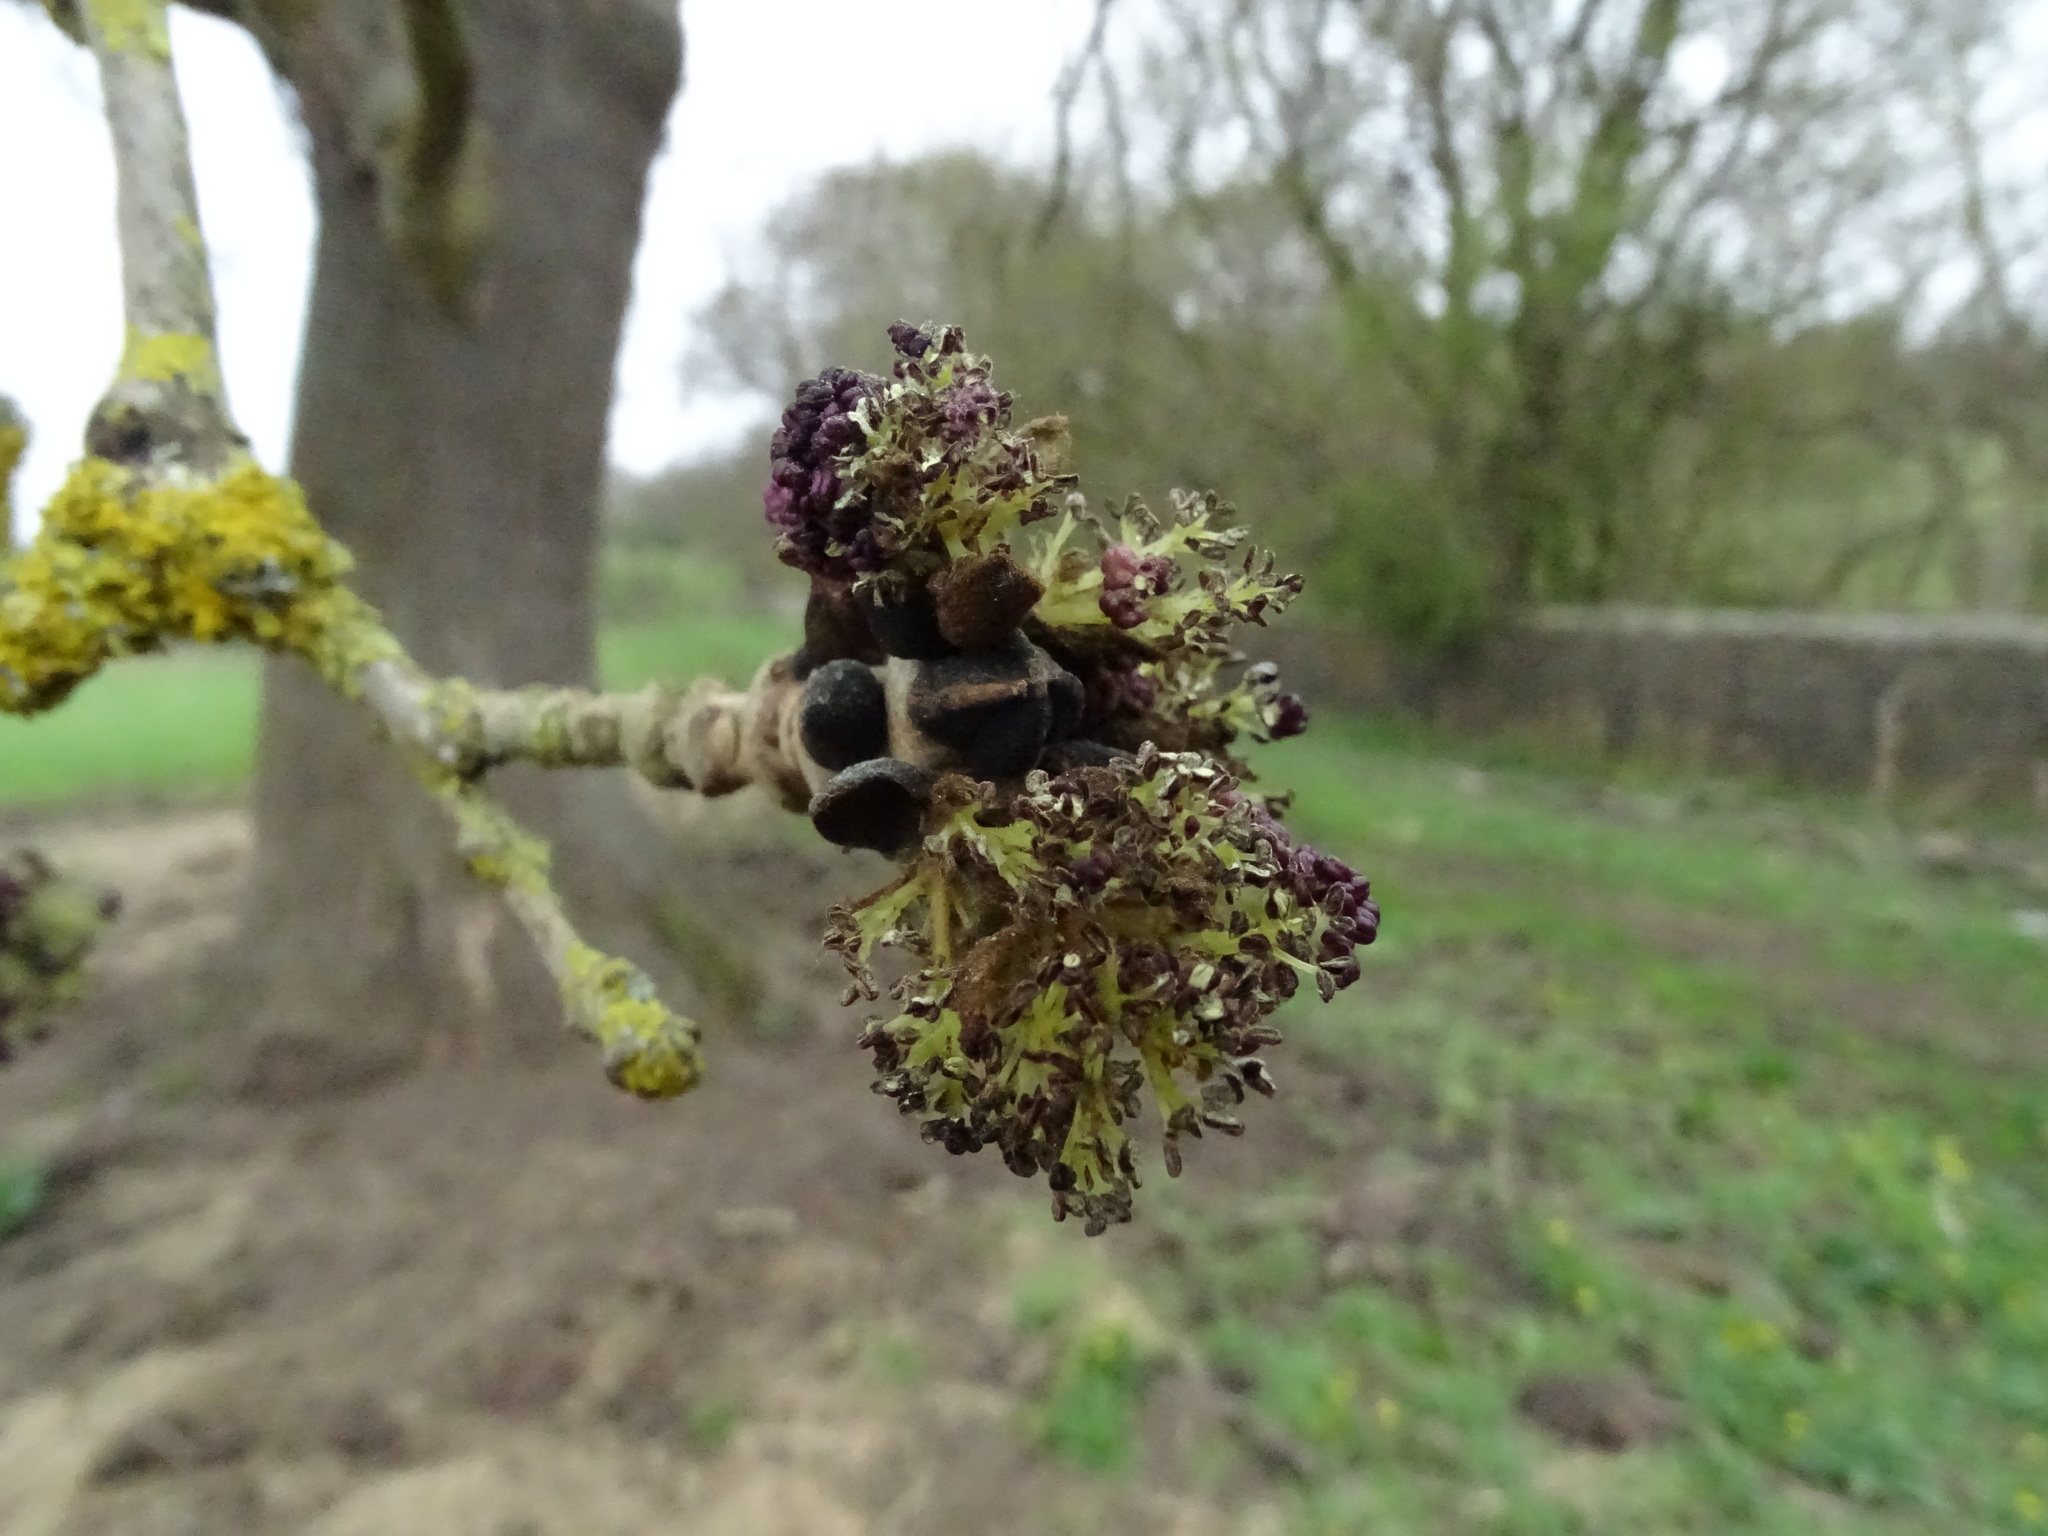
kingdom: Plantae
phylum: Tracheophyta
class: Magnoliopsida
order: Lamiales
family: Oleaceae
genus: Fraxinus
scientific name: Fraxinus excelsior
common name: European ash
